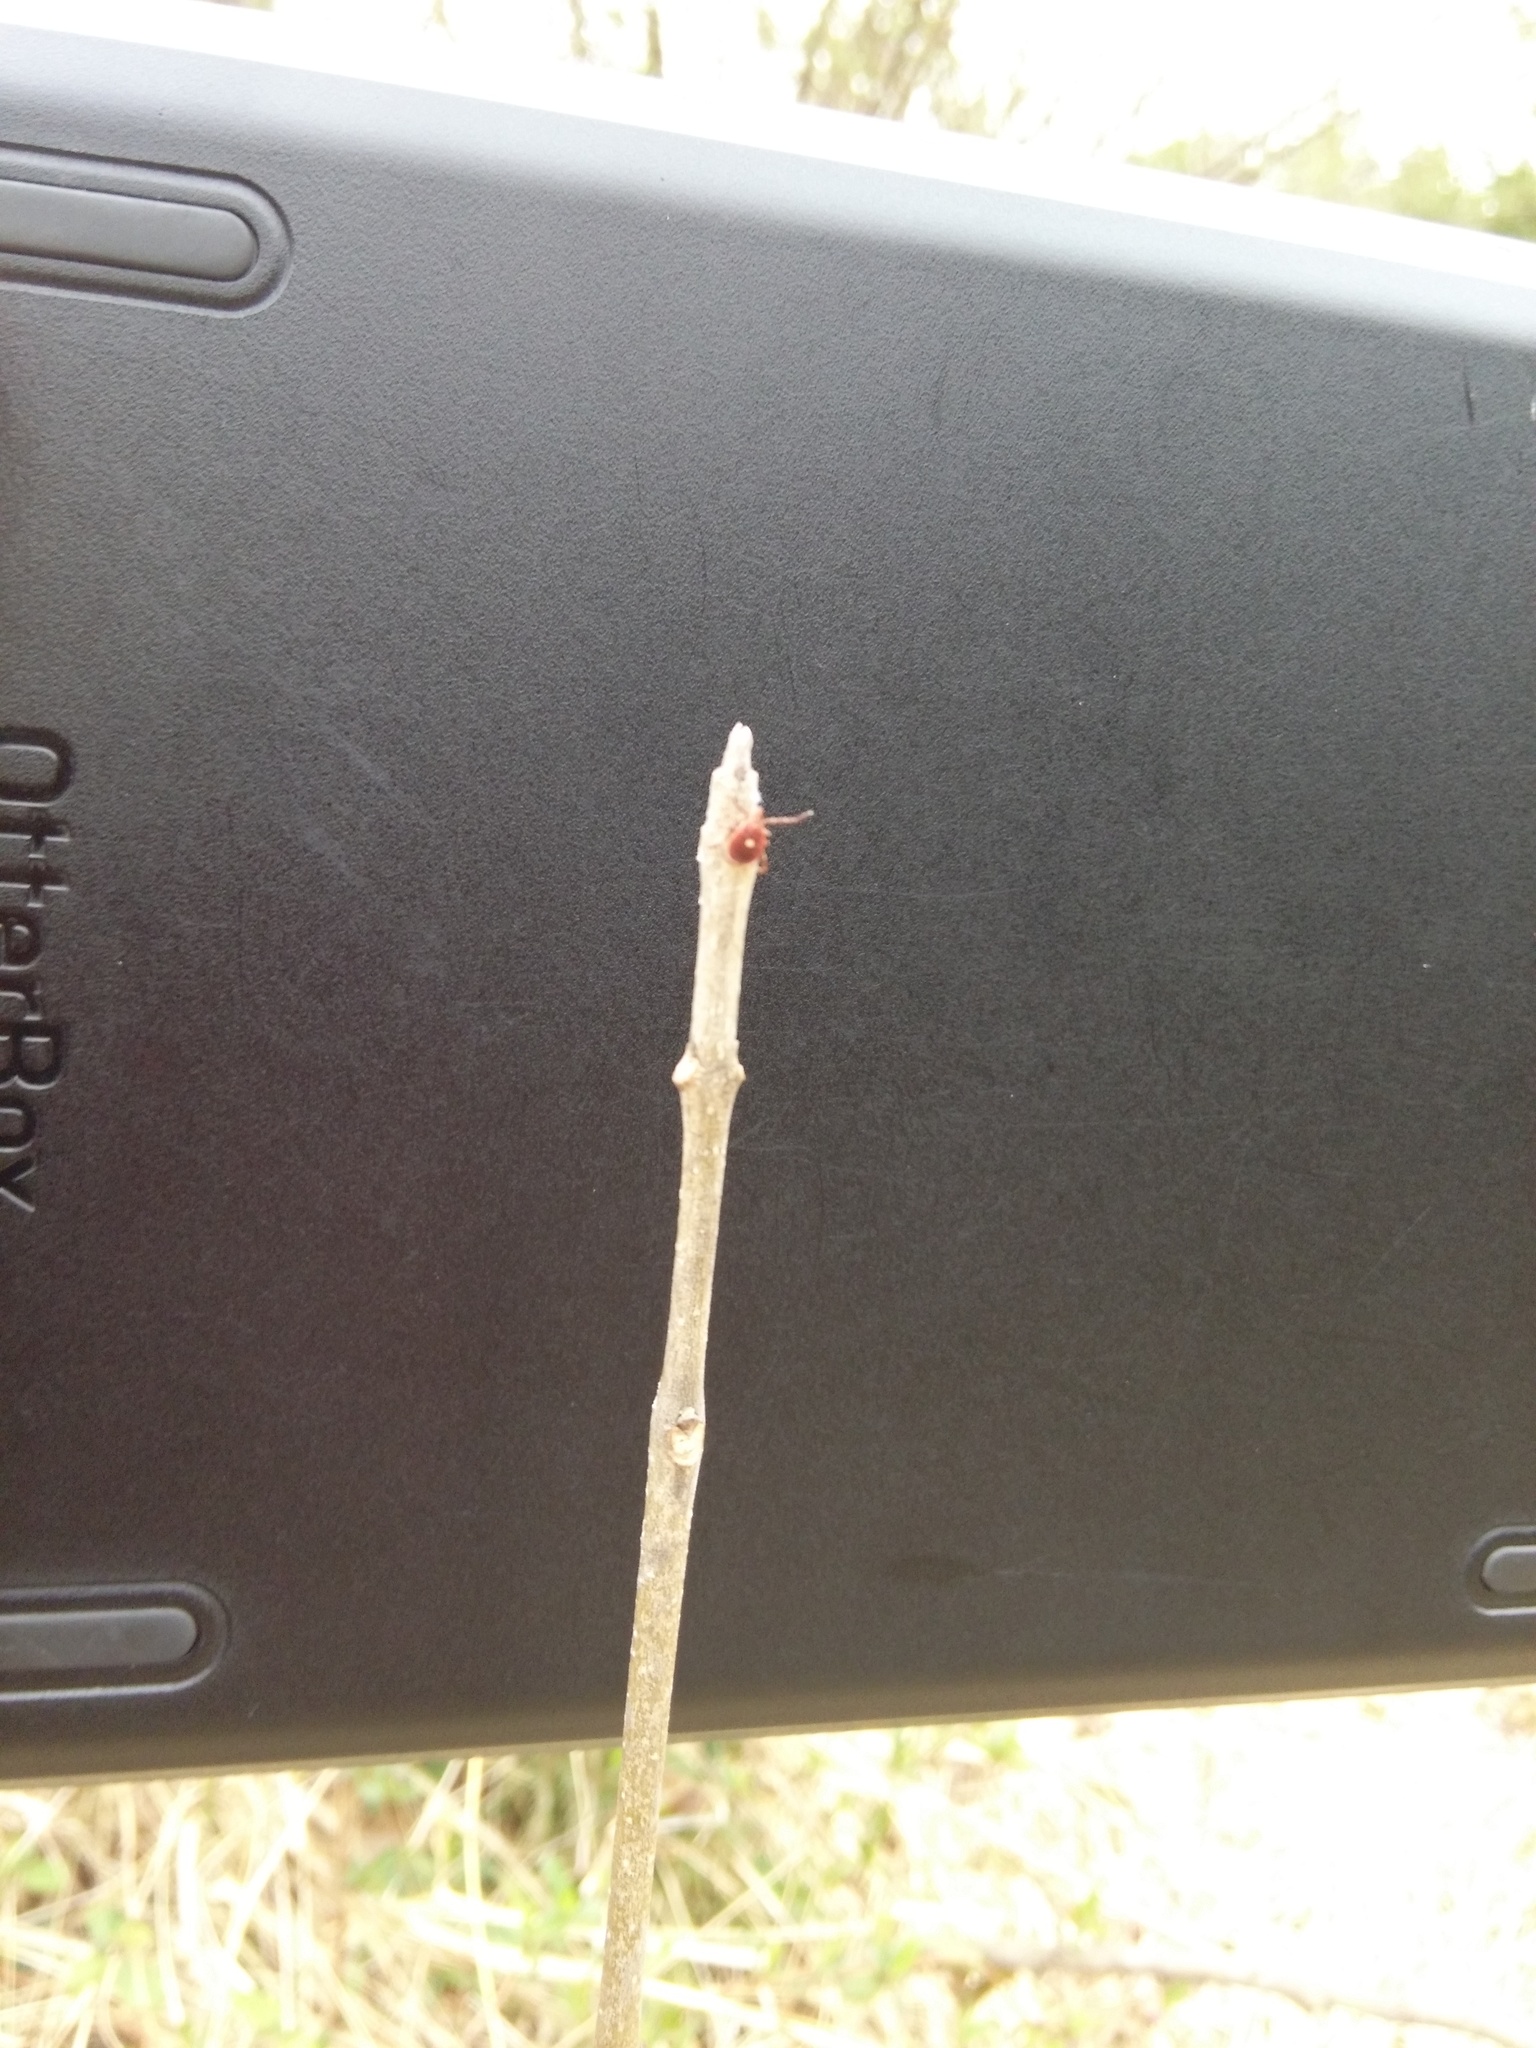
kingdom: Animalia
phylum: Arthropoda
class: Arachnida
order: Ixodida
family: Ixodidae
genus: Amblyomma
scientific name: Amblyomma americanum
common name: Lone star tick
